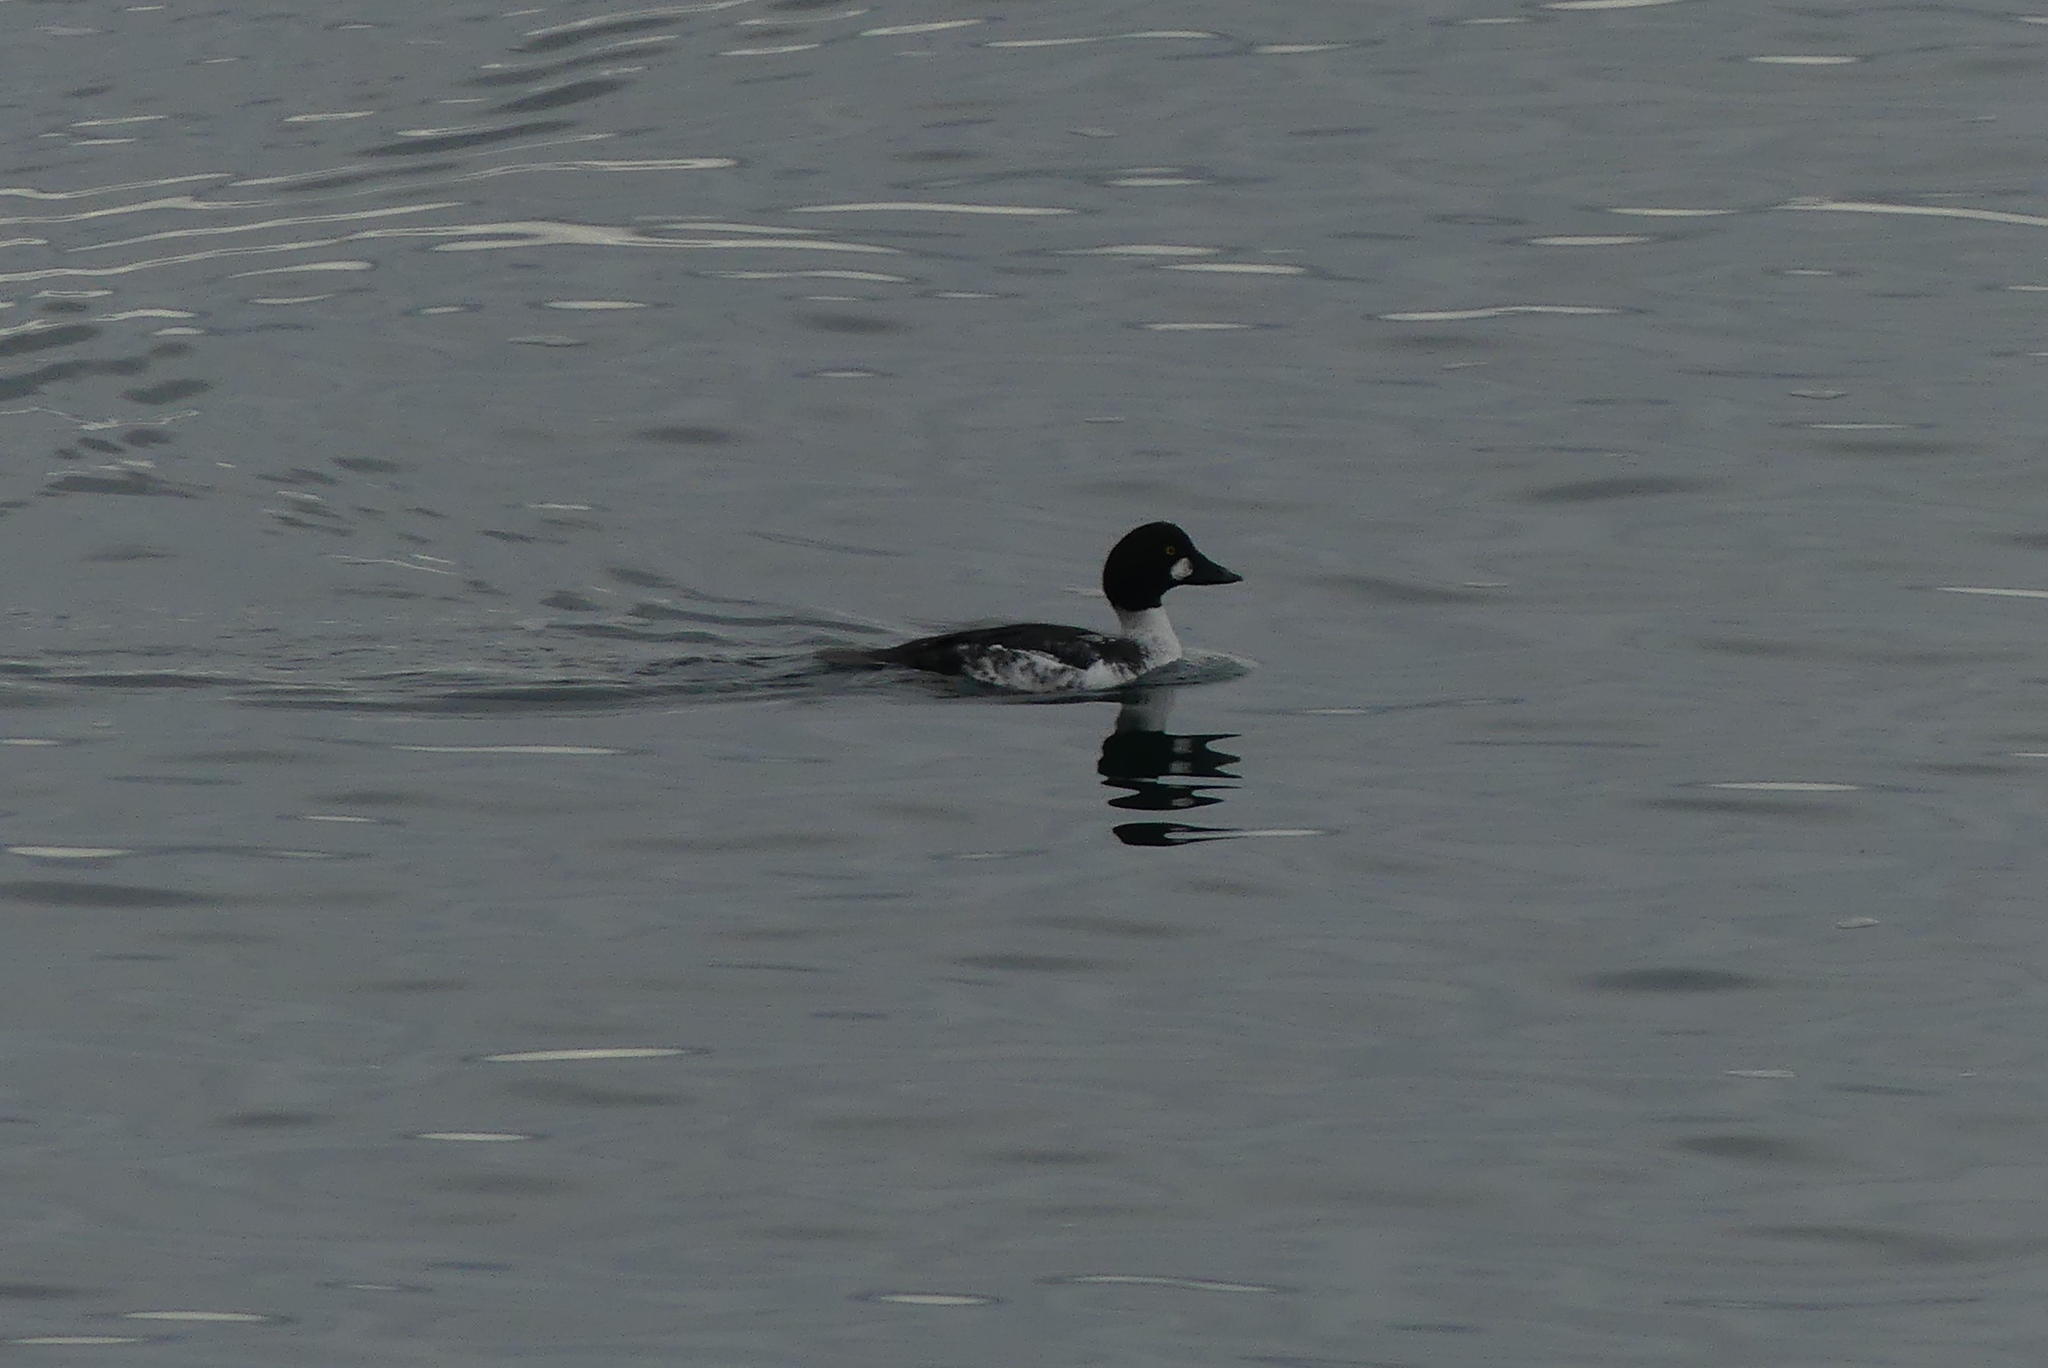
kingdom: Animalia
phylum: Chordata
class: Aves
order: Anseriformes
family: Anatidae
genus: Bucephala
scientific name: Bucephala clangula
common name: Common goldeneye
